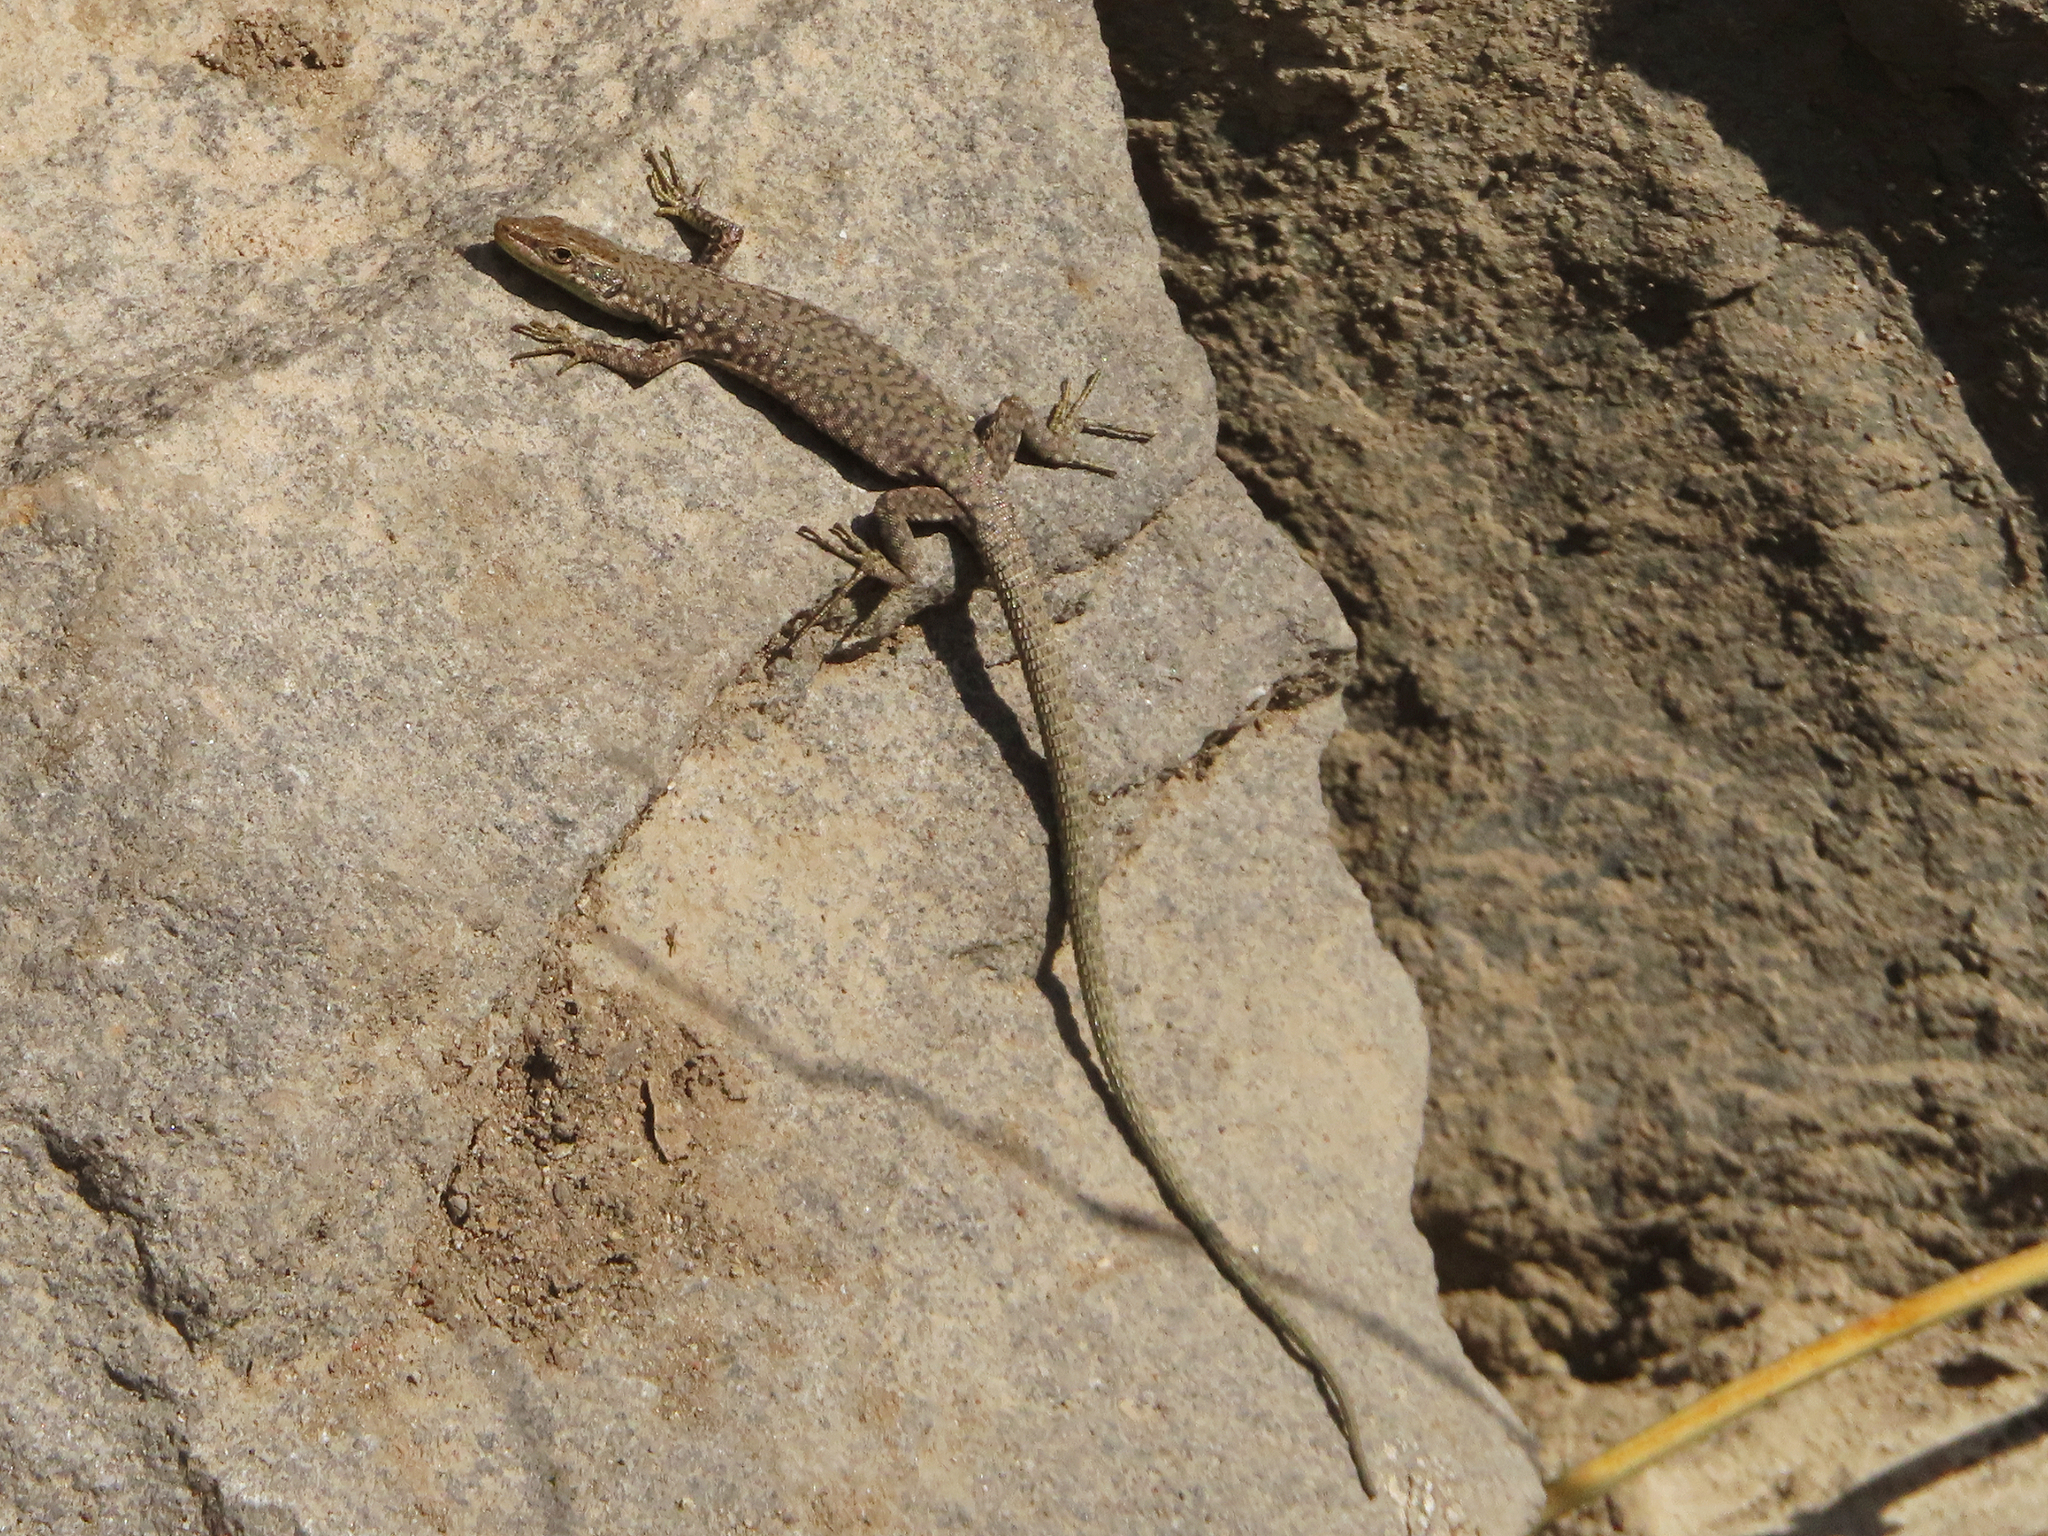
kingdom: Animalia
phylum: Chordata
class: Squamata
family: Lacertidae
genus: Darevskia
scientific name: Darevskia
